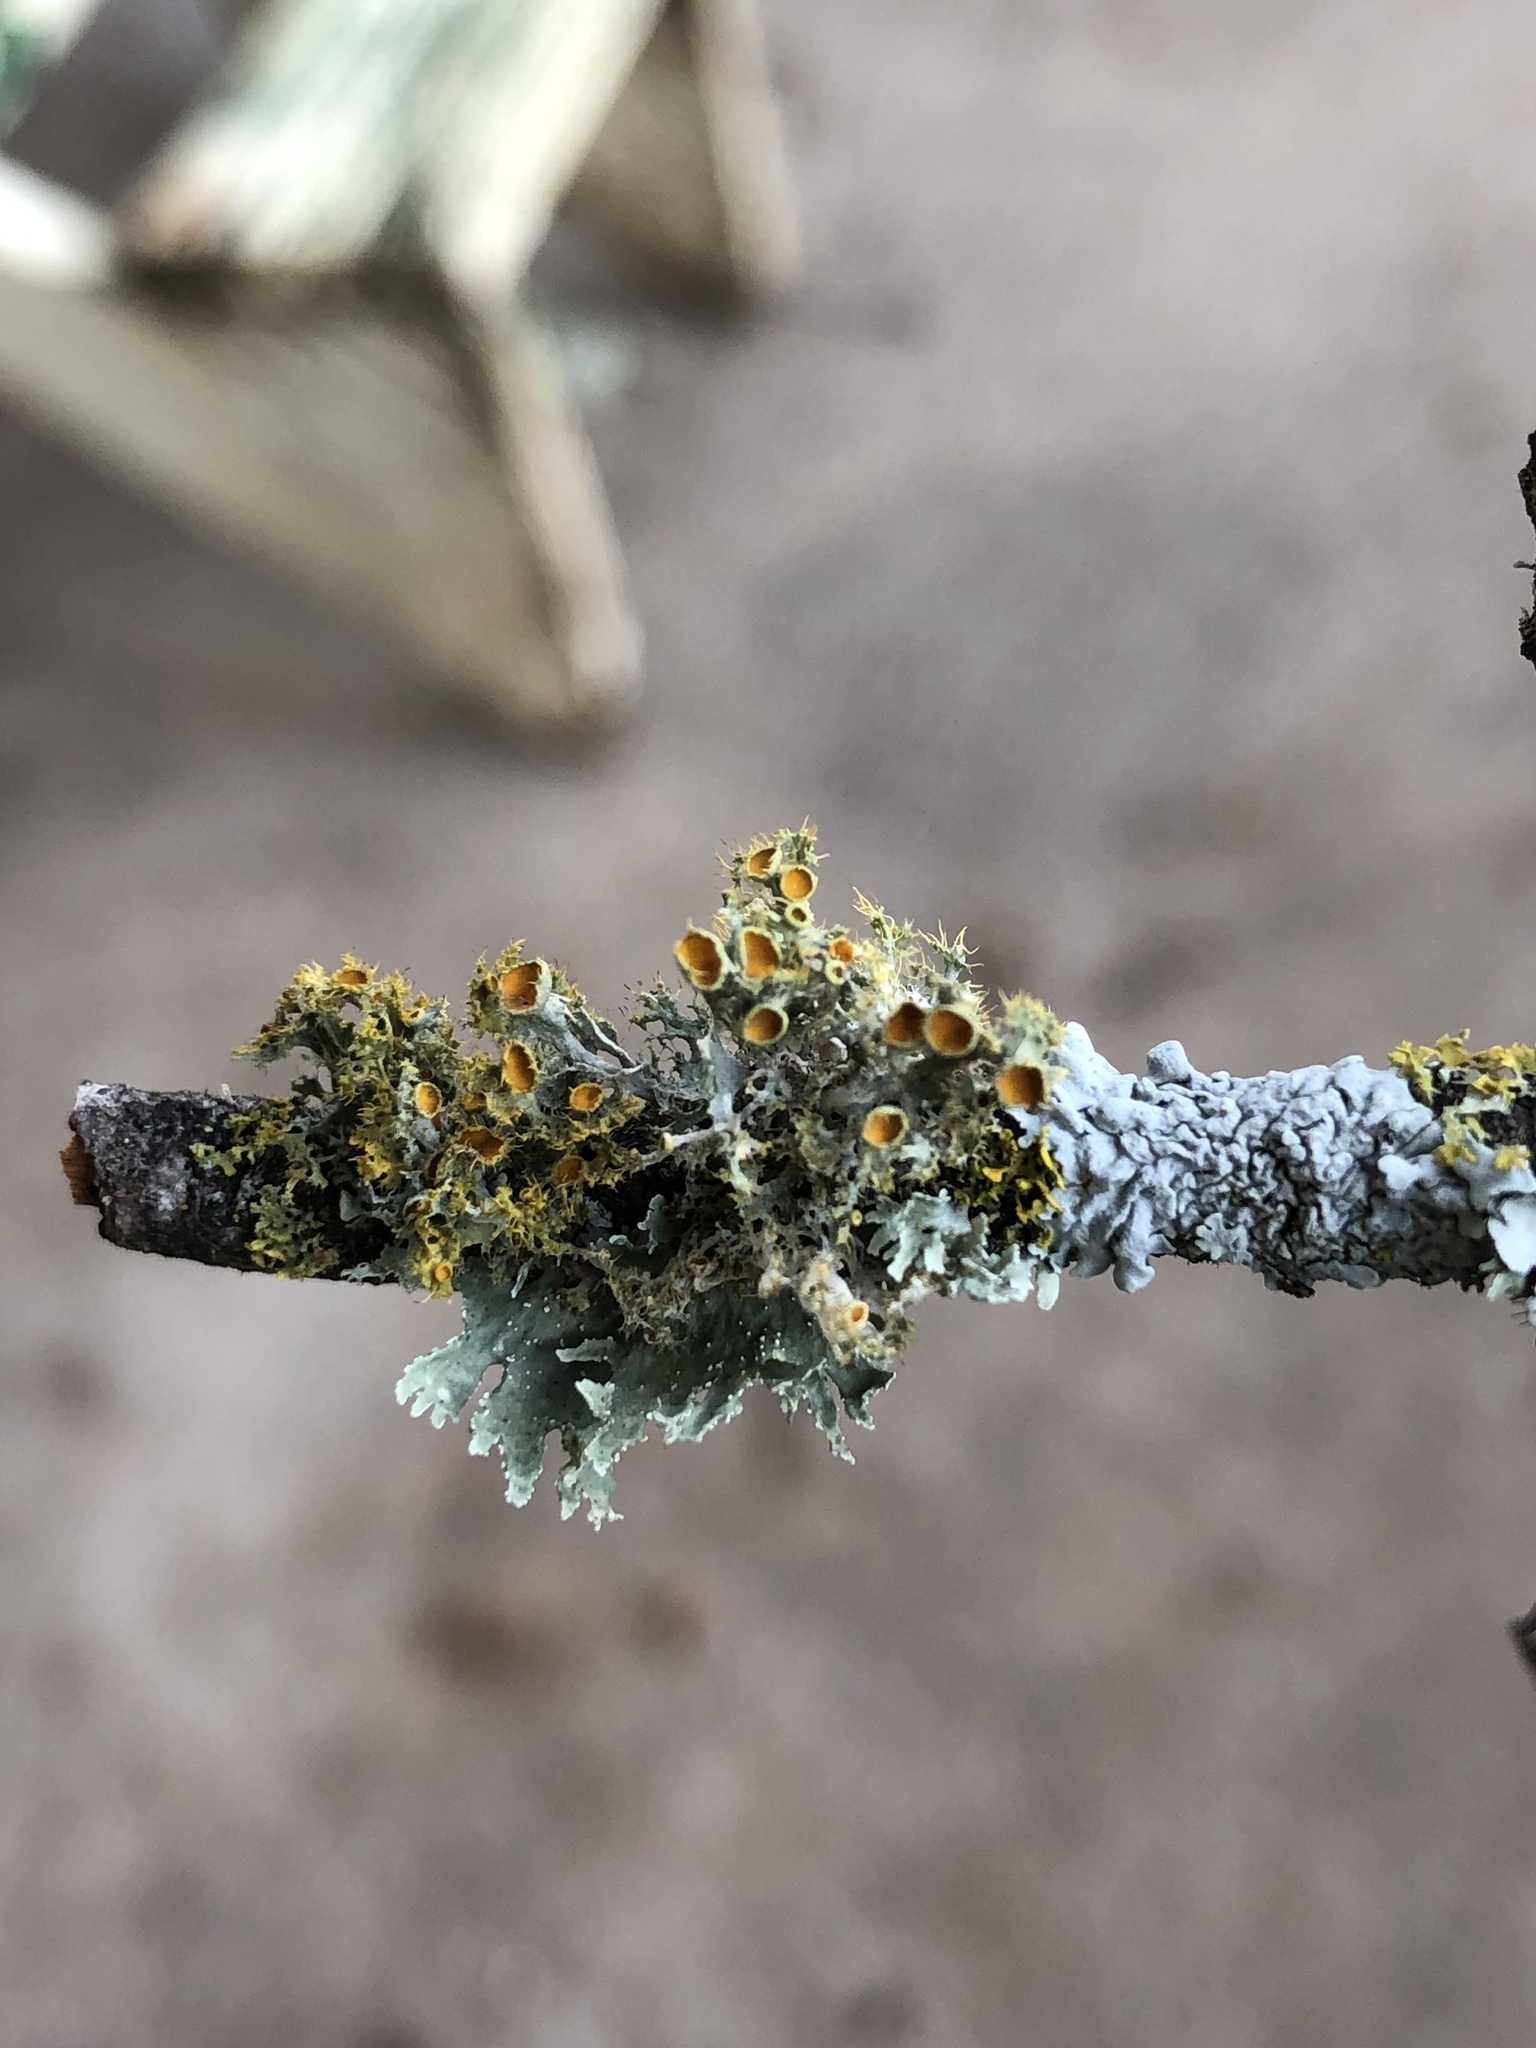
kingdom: Fungi
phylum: Ascomycota
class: Lecanoromycetes
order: Teloschistales
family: Teloschistaceae
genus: Niorma
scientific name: Niorma chrysophthalma
